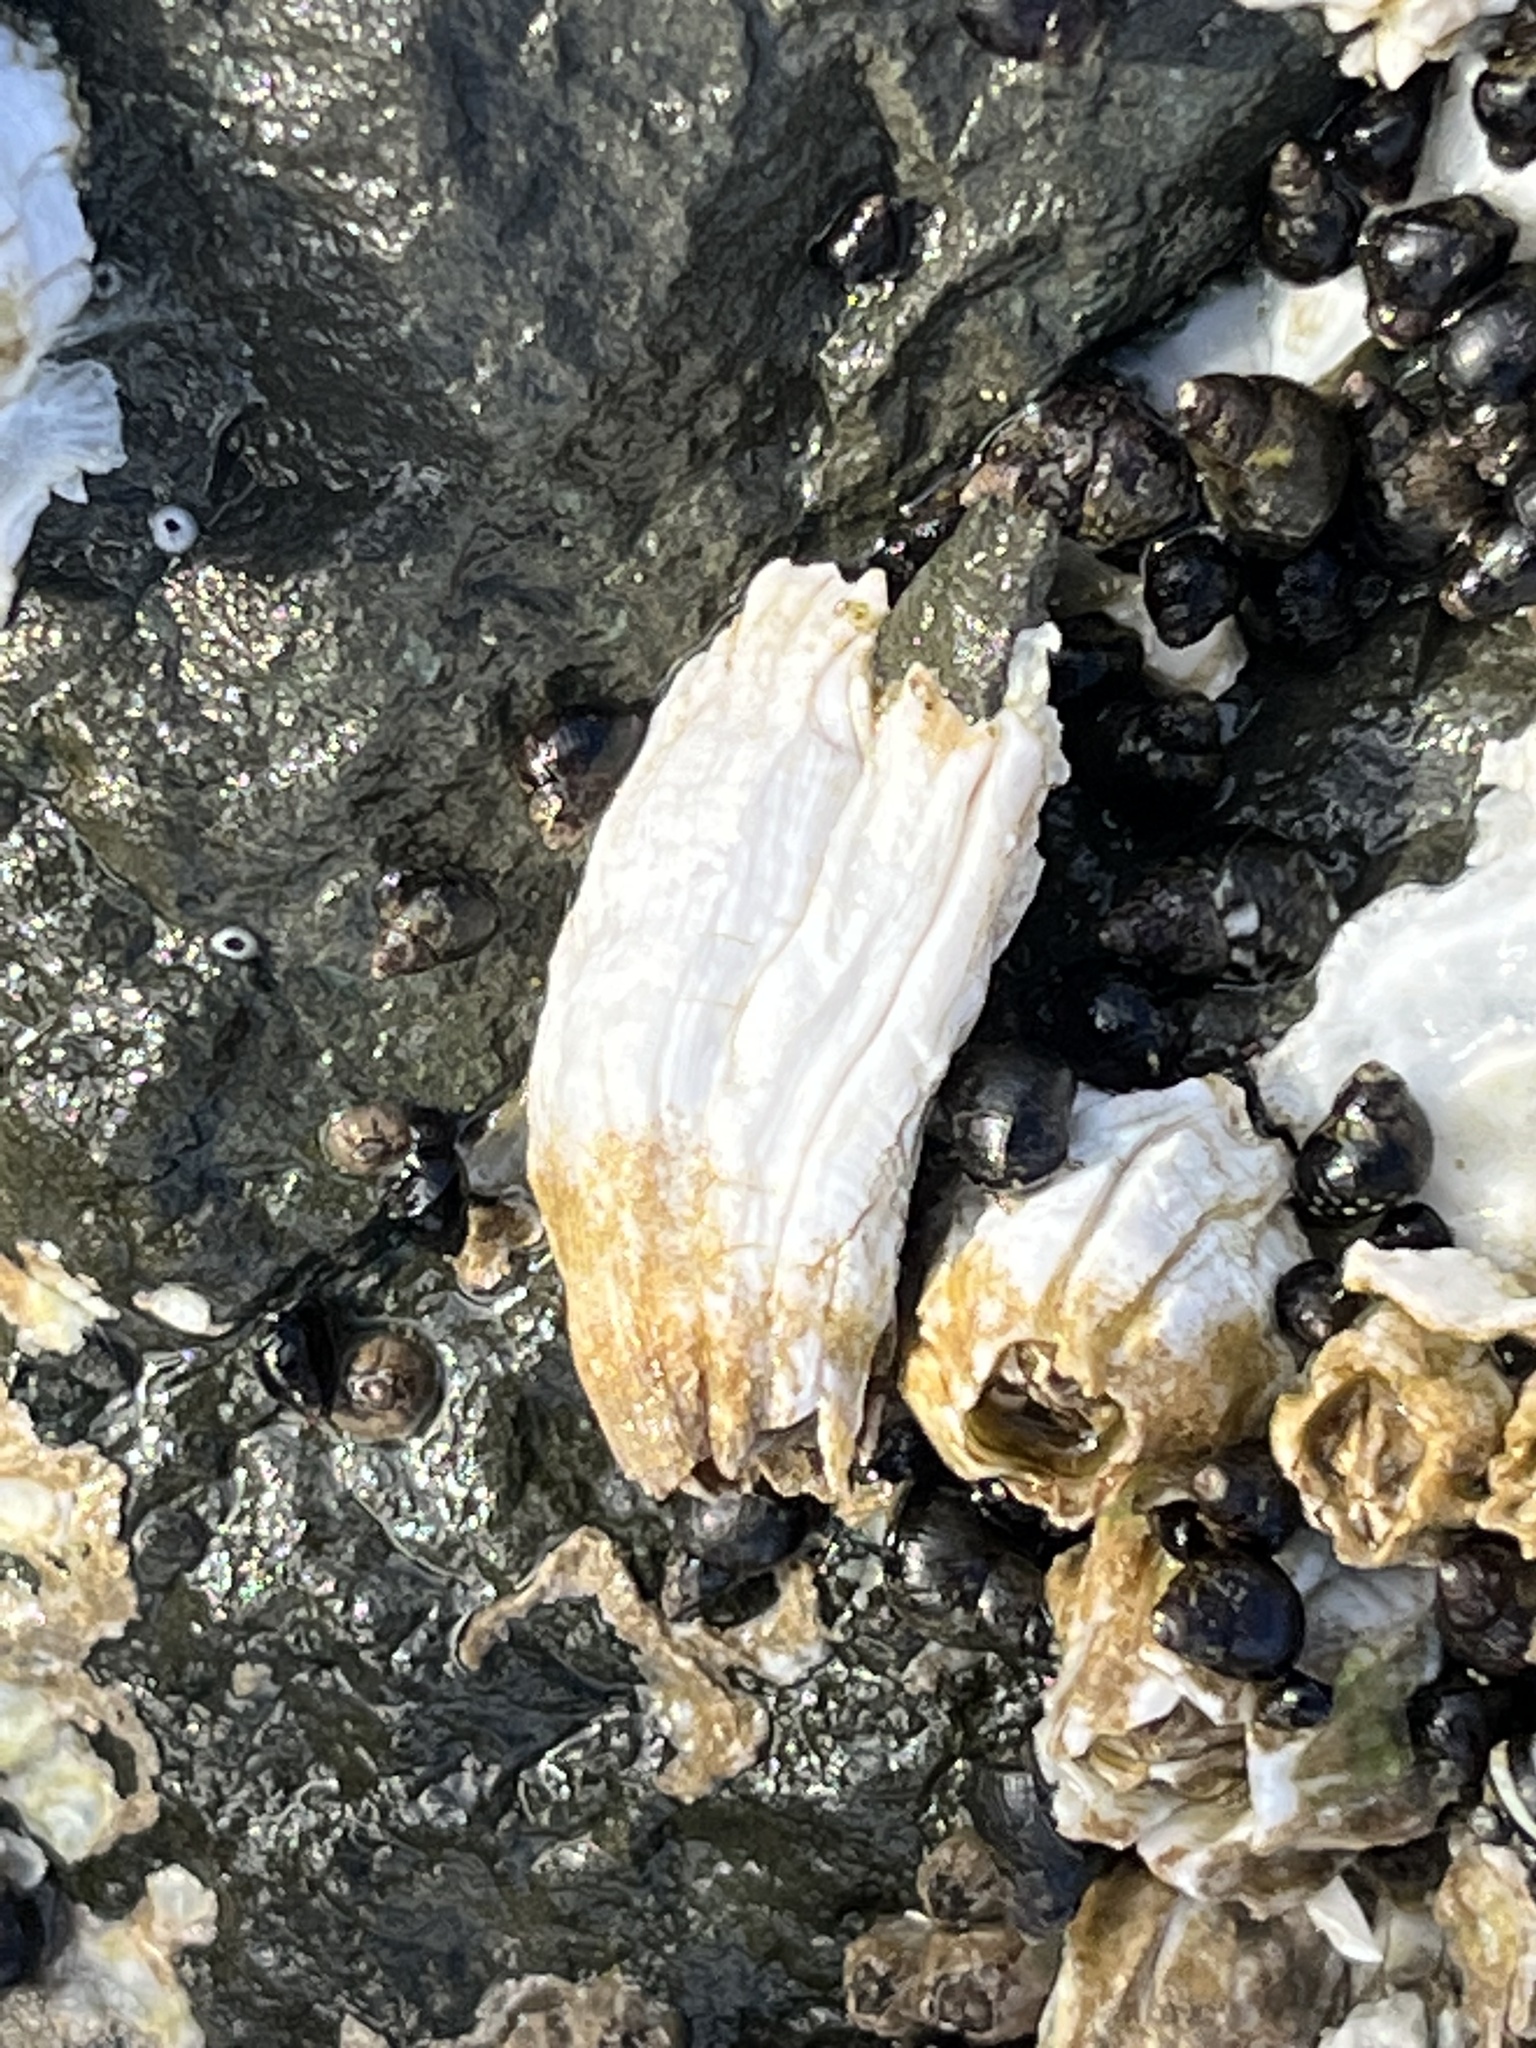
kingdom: Animalia
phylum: Arthropoda
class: Maxillopoda
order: Sessilia
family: Balanidae
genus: Balanus
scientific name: Balanus glandula
